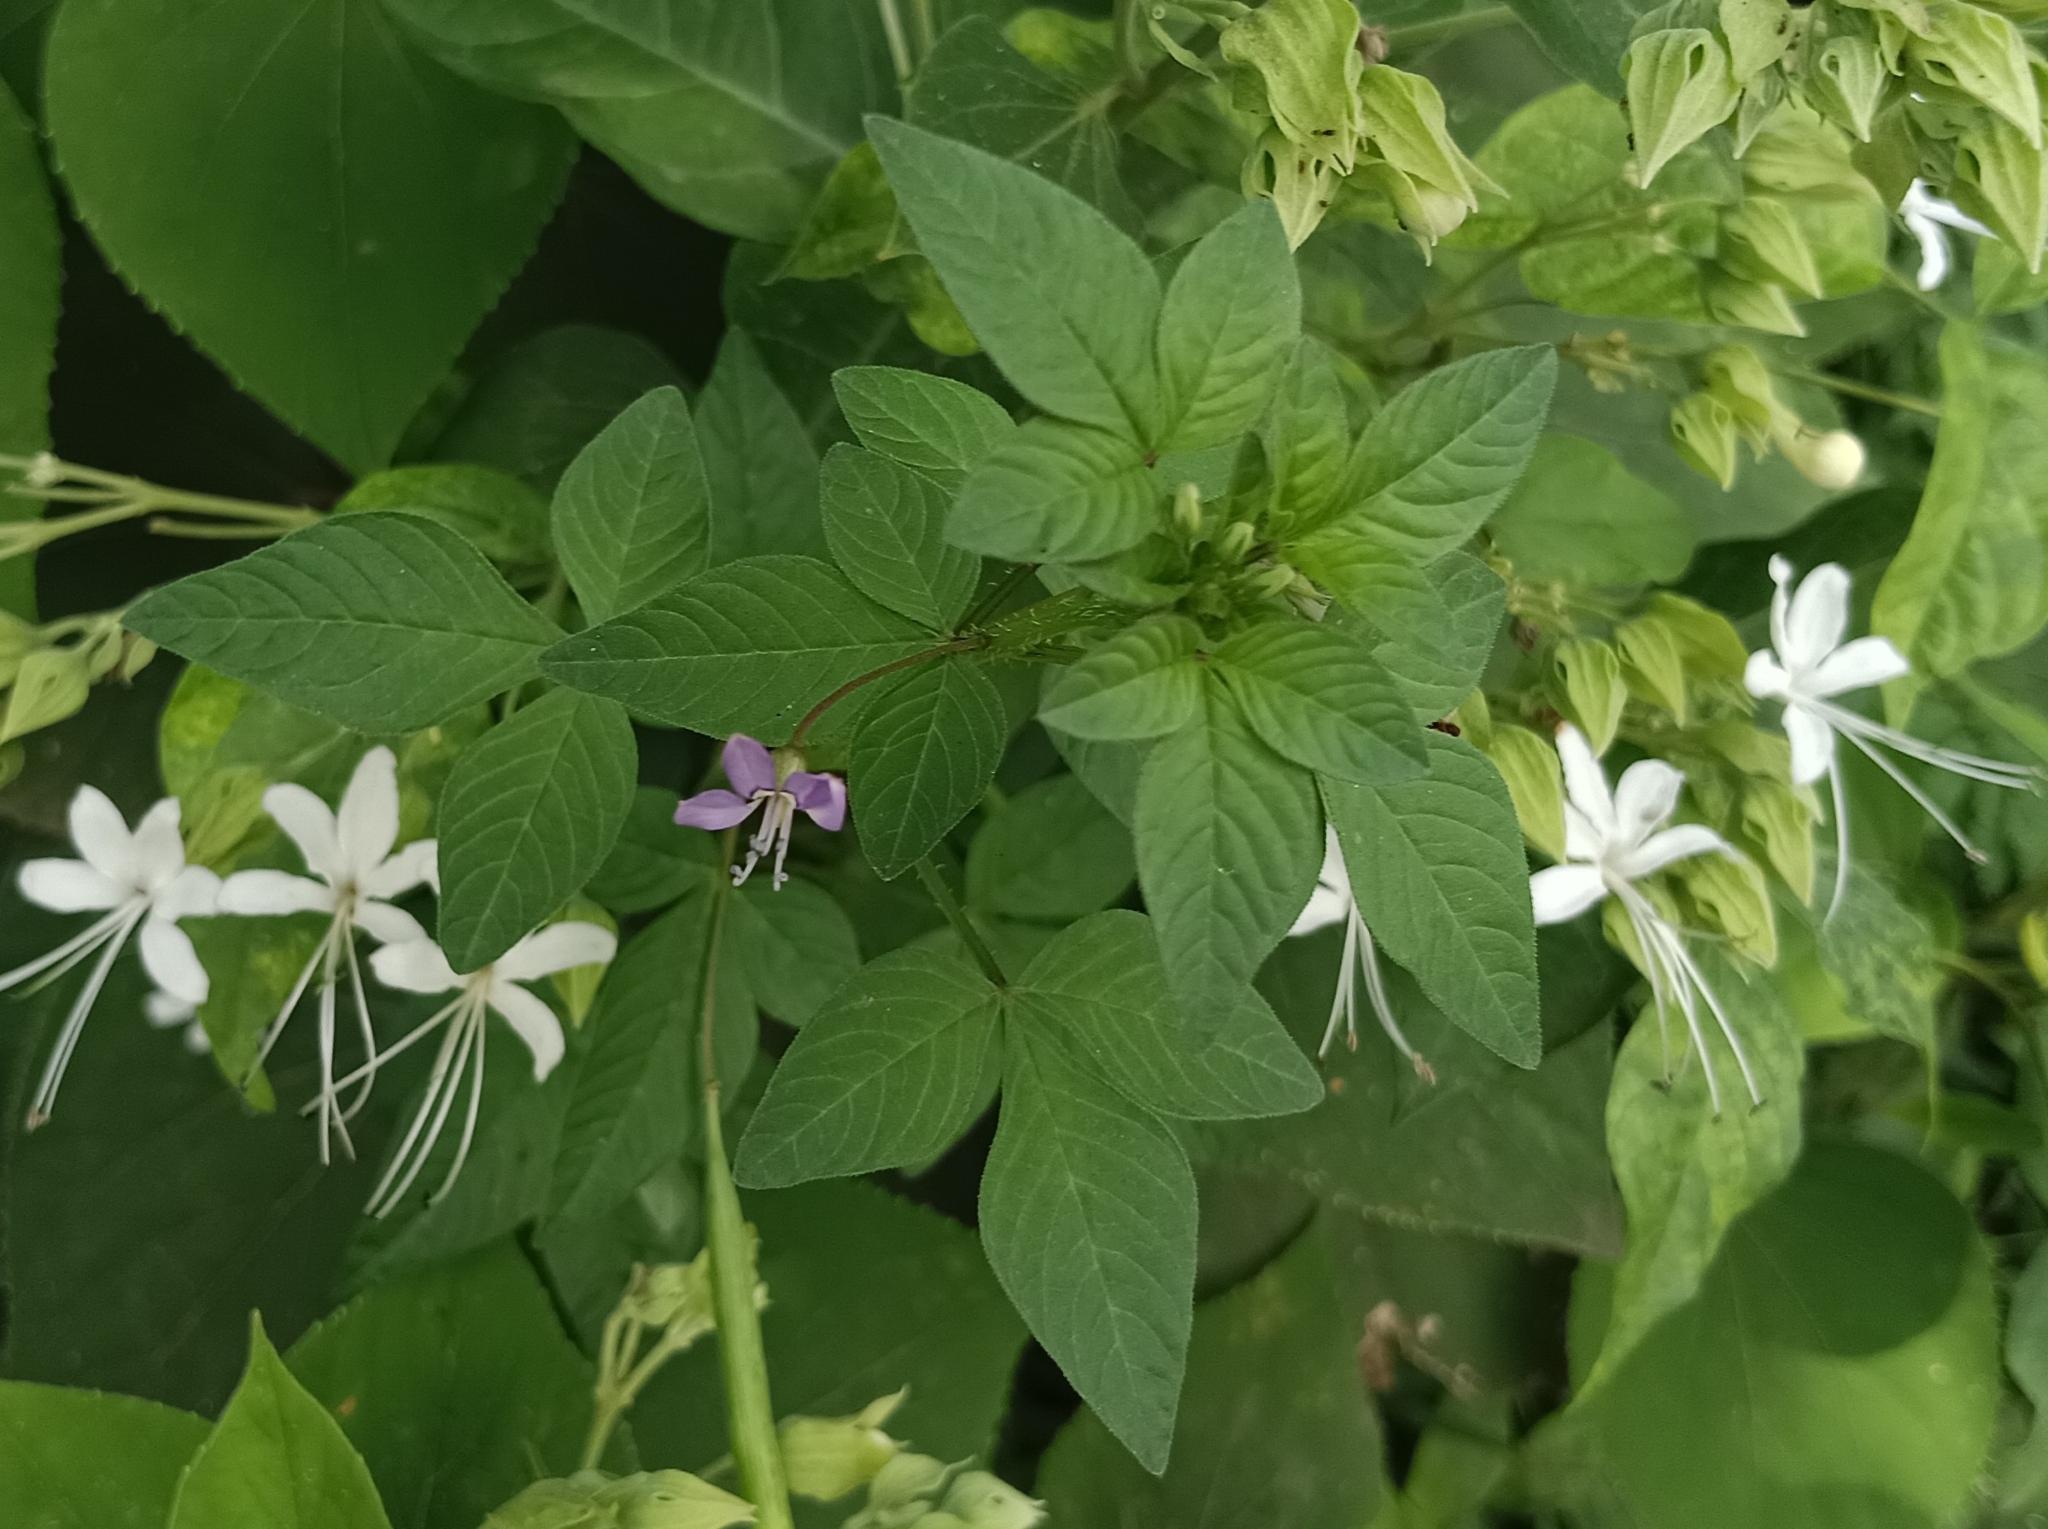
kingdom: Plantae
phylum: Tracheophyta
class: Magnoliopsida
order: Brassicales
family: Cleomaceae
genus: Sieruela
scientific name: Sieruela rutidosperma
